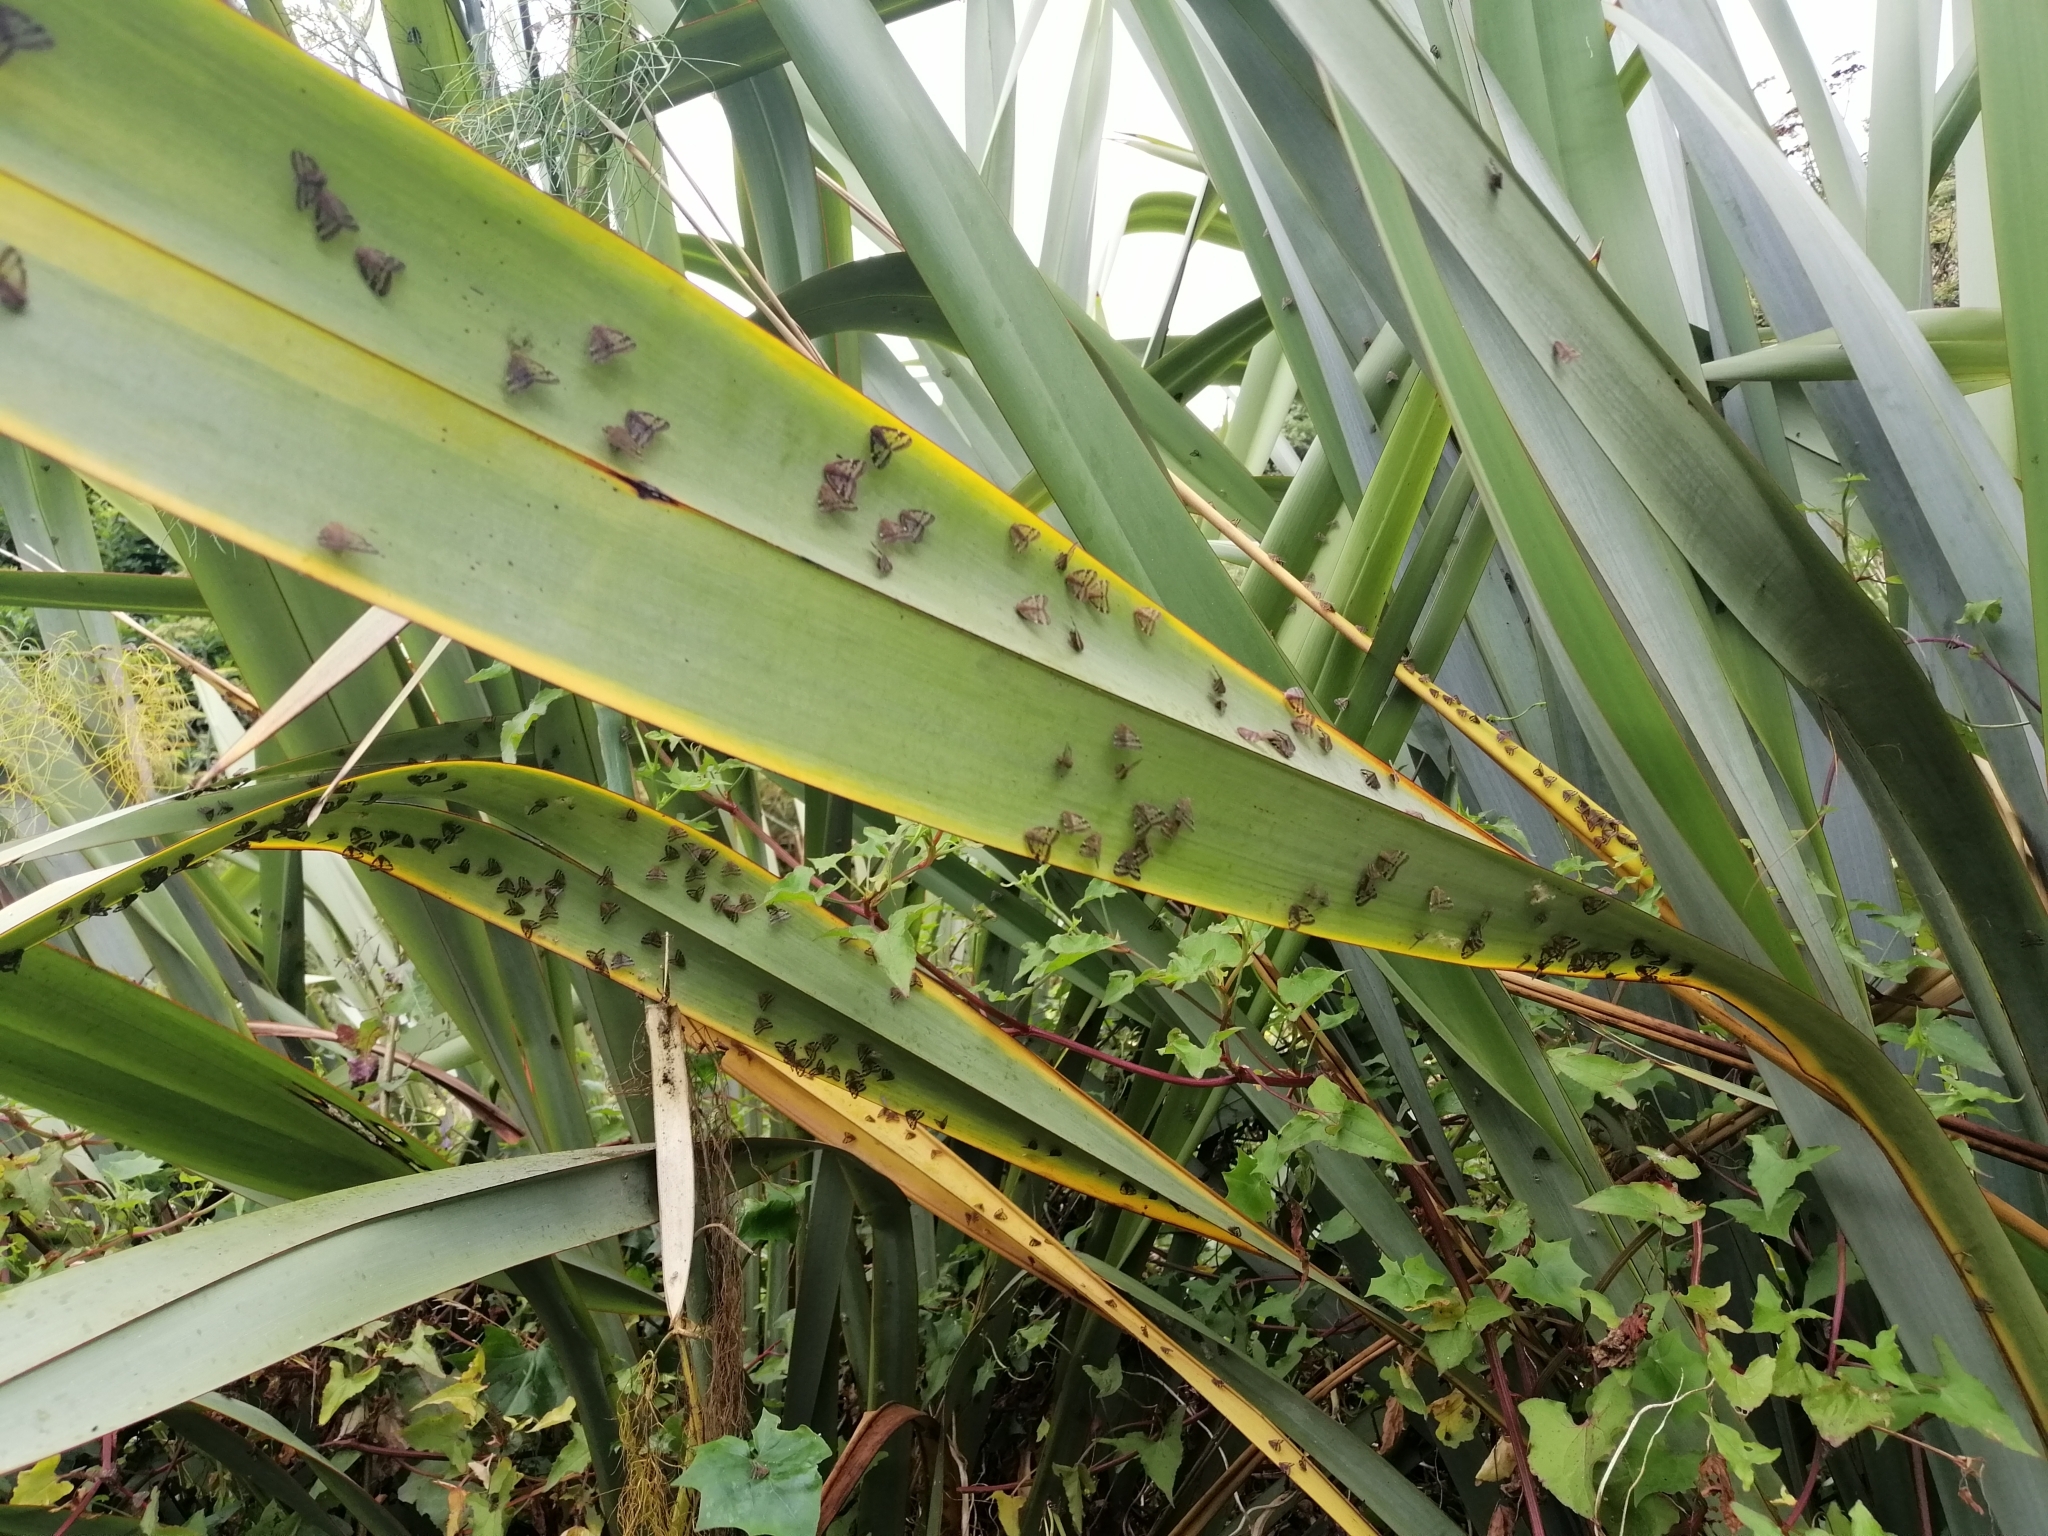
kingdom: Animalia
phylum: Arthropoda
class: Insecta
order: Hemiptera
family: Ricaniidae
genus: Scolypopa
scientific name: Scolypopa australis
